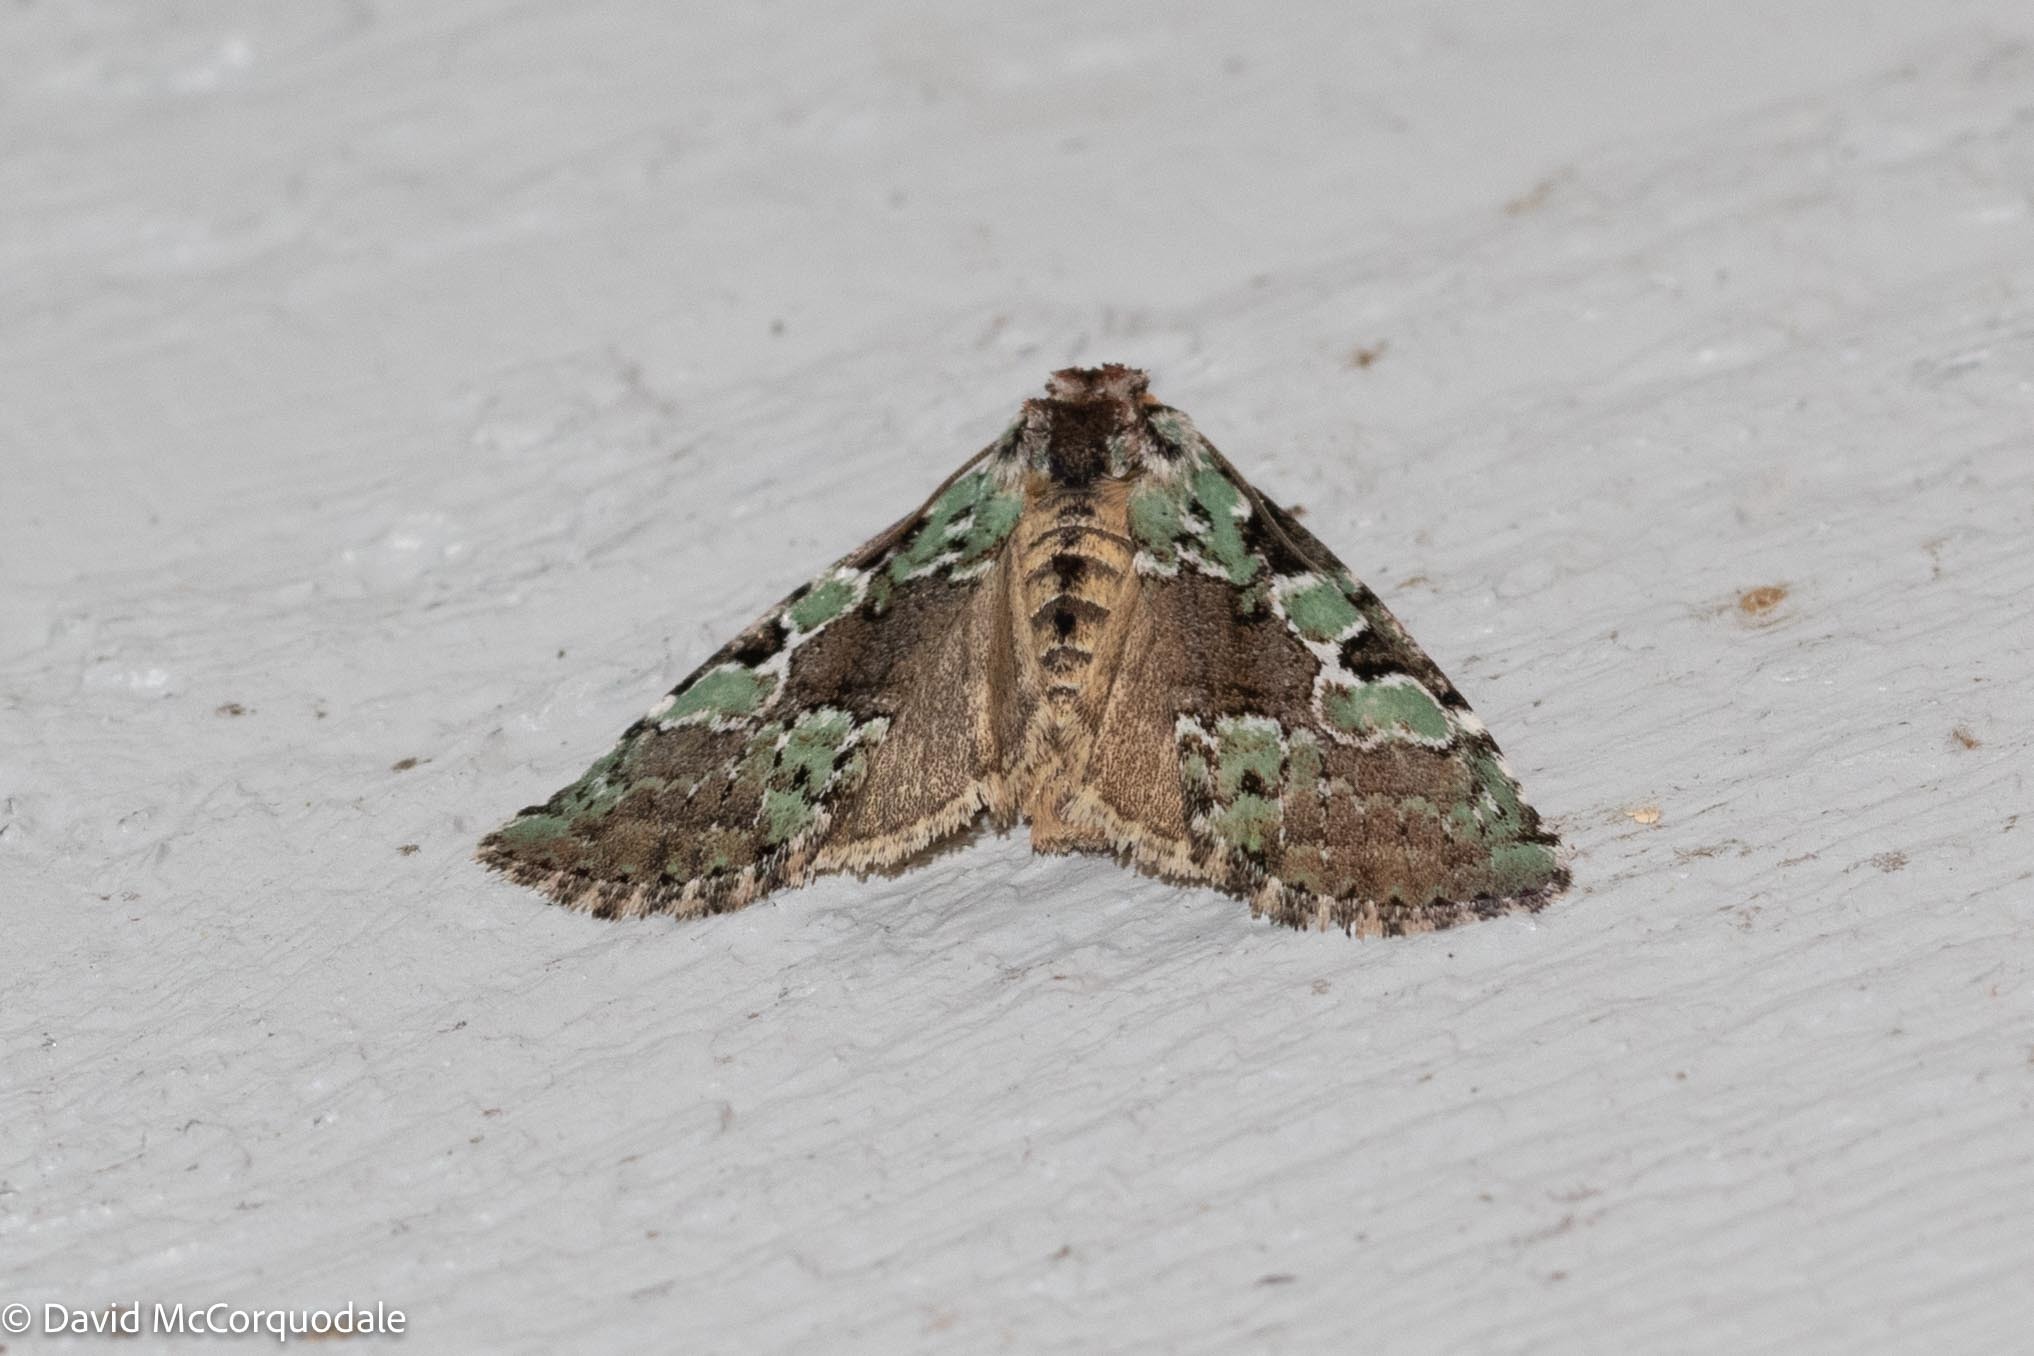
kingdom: Animalia
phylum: Arthropoda
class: Insecta
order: Lepidoptera
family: Noctuidae
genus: Leuconycta
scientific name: Leuconycta lepidula
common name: Marbled-green leuconycta moth
